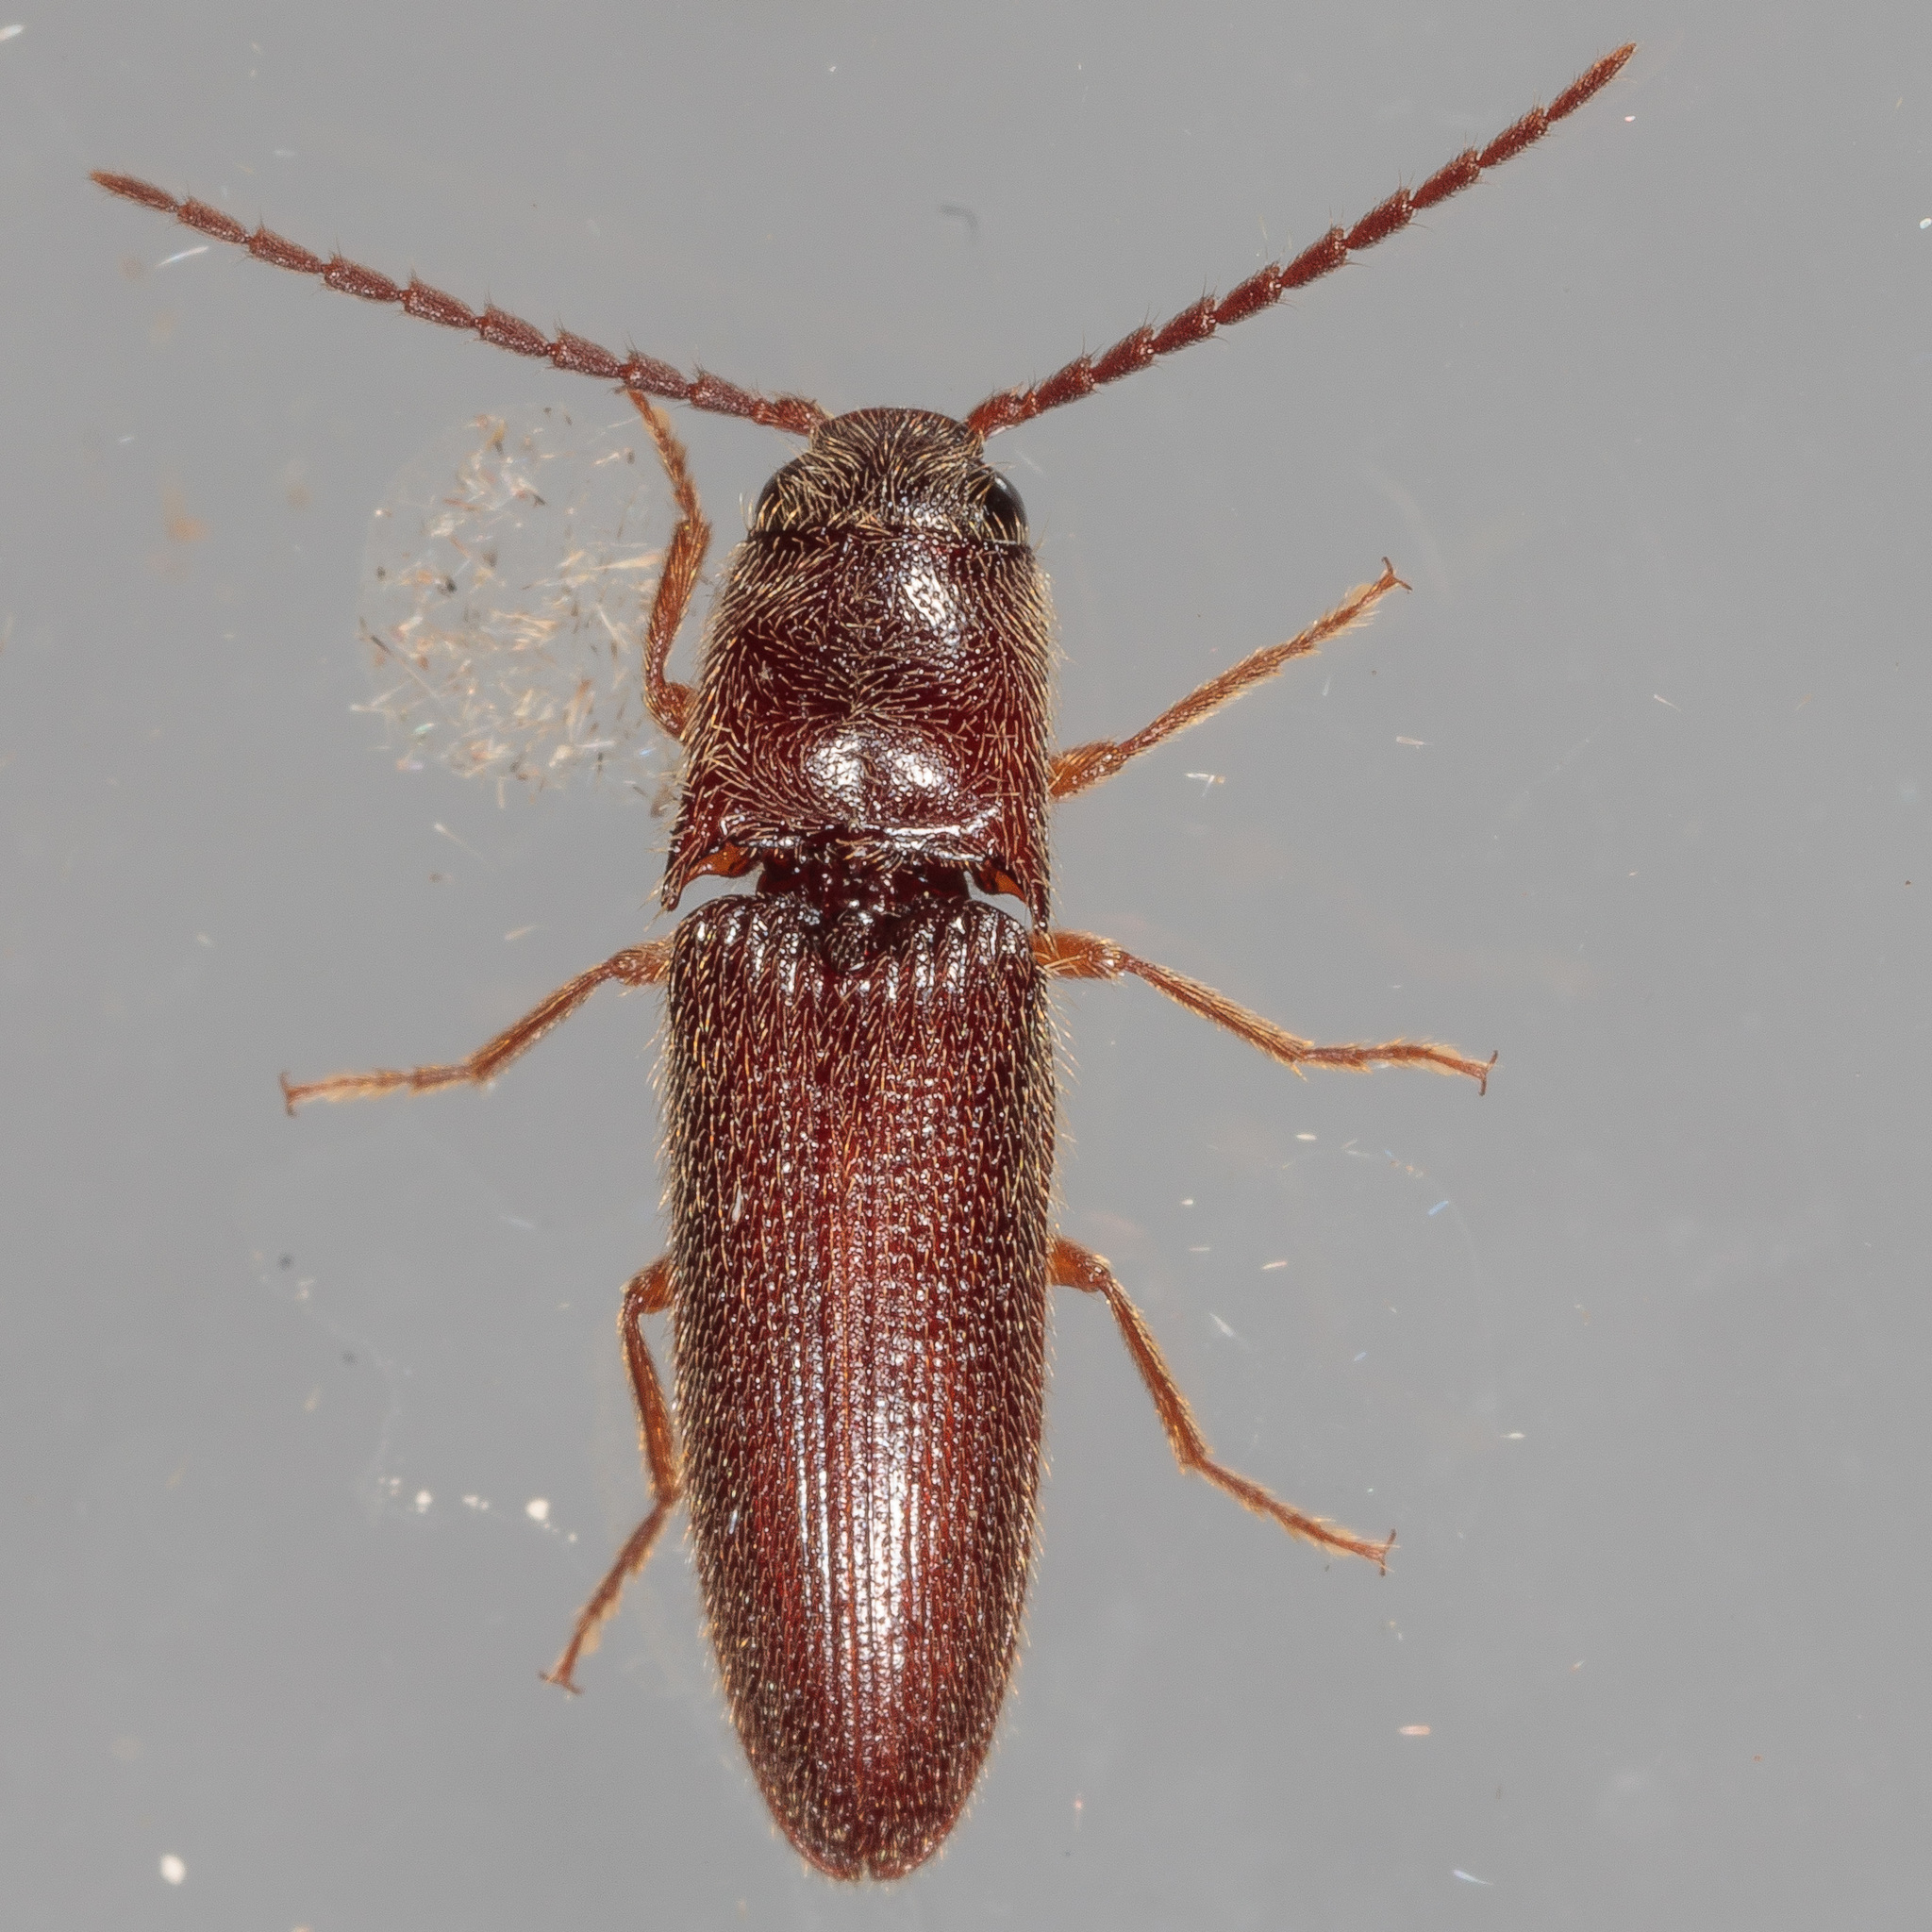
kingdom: Animalia
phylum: Arthropoda
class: Insecta
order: Coleoptera
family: Elateridae
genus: Dipropus
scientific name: Dipropus
